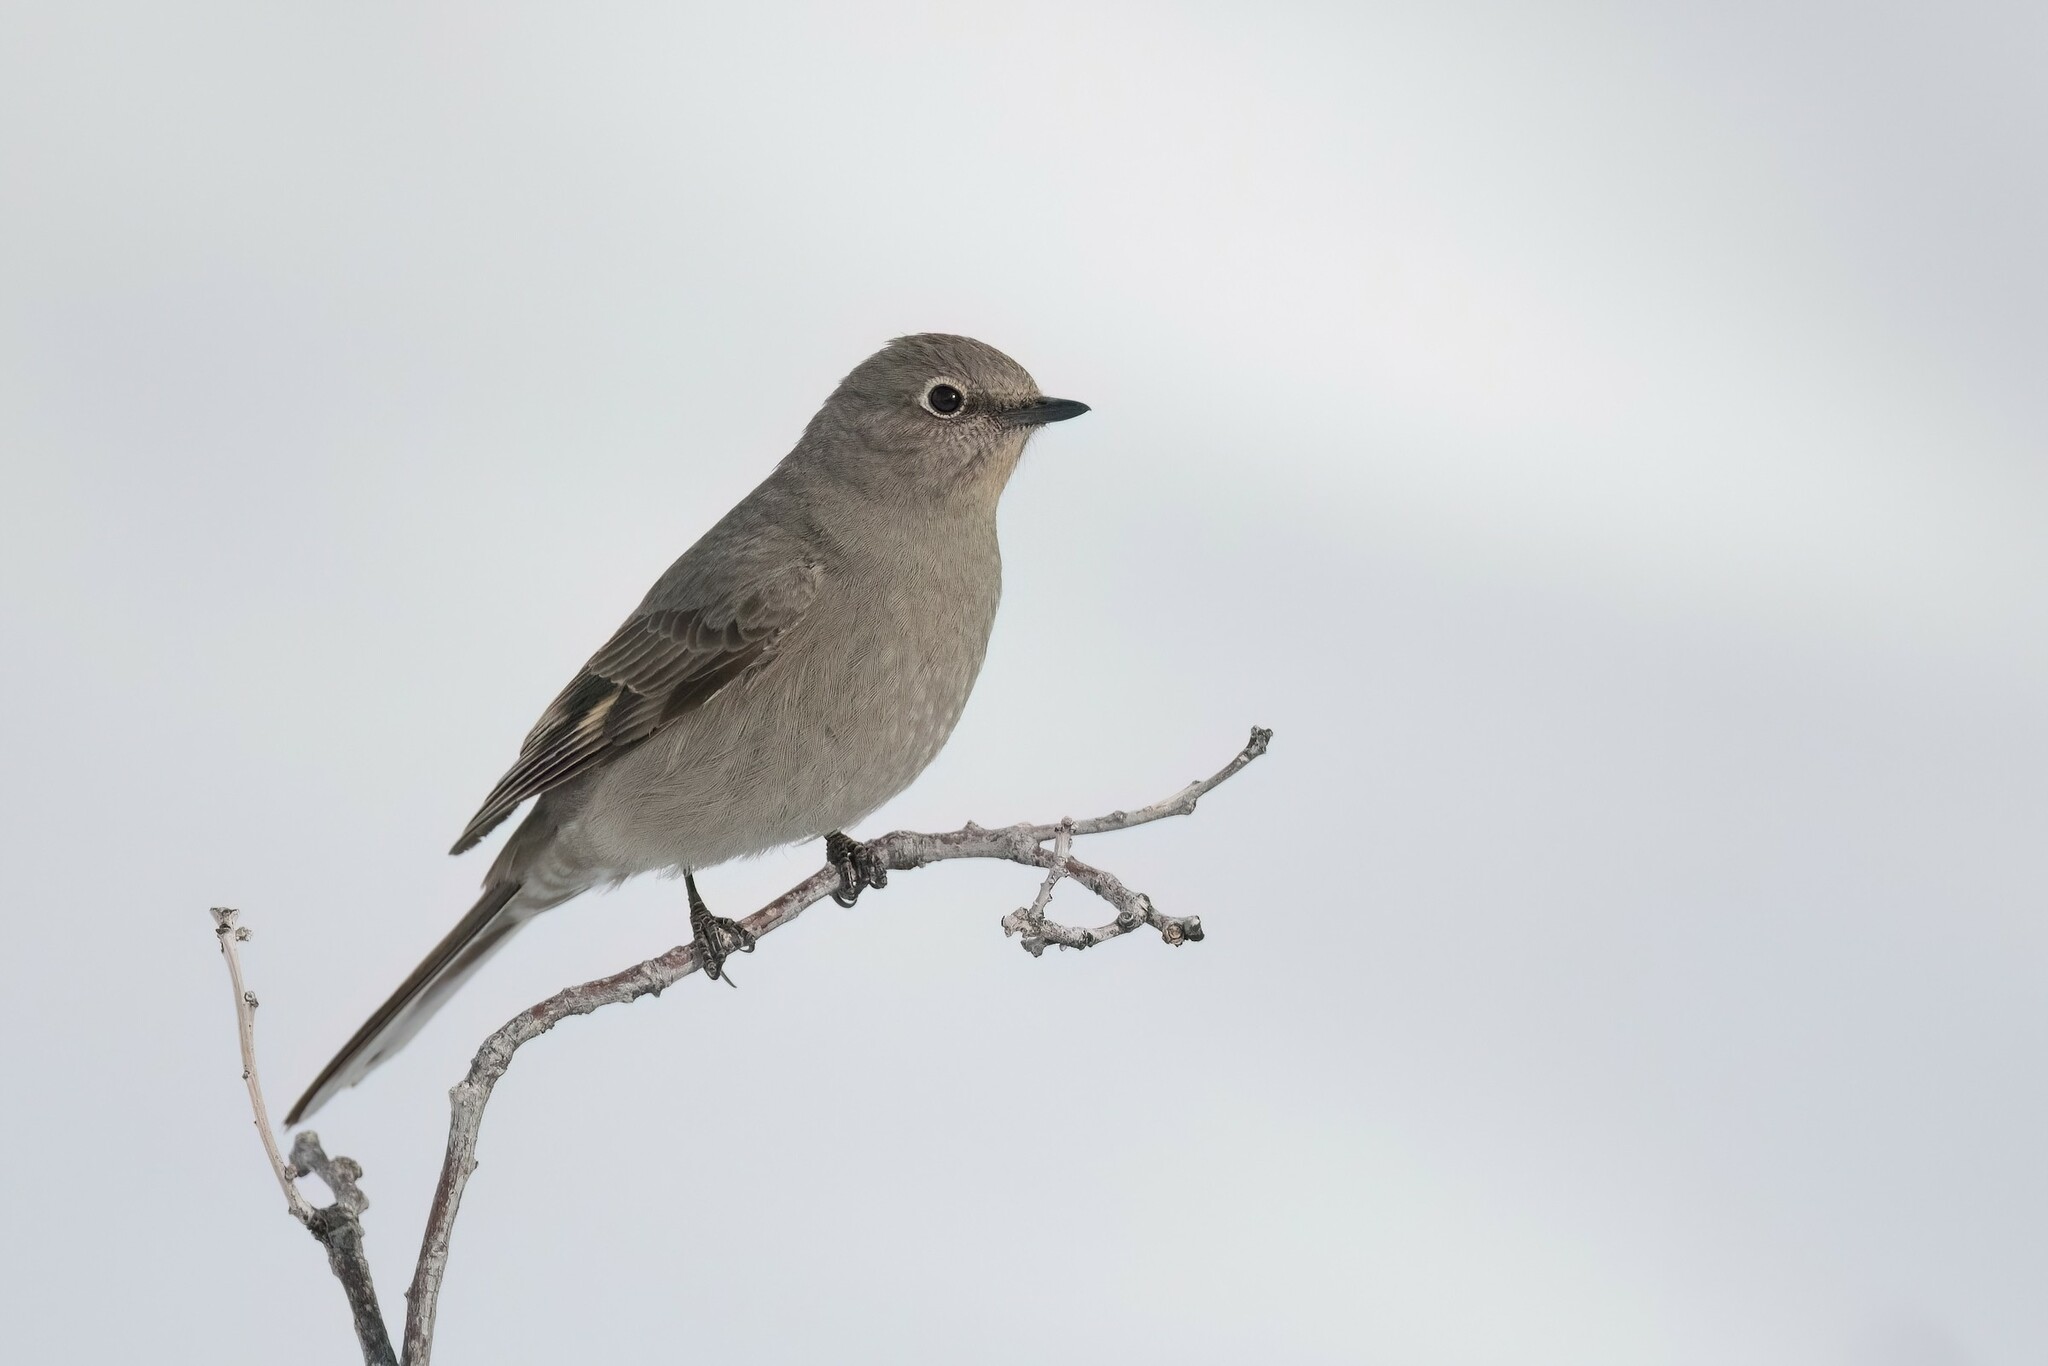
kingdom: Animalia
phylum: Chordata
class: Aves
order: Passeriformes
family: Turdidae
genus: Myadestes
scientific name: Myadestes townsendi
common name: Townsend's solitaire
